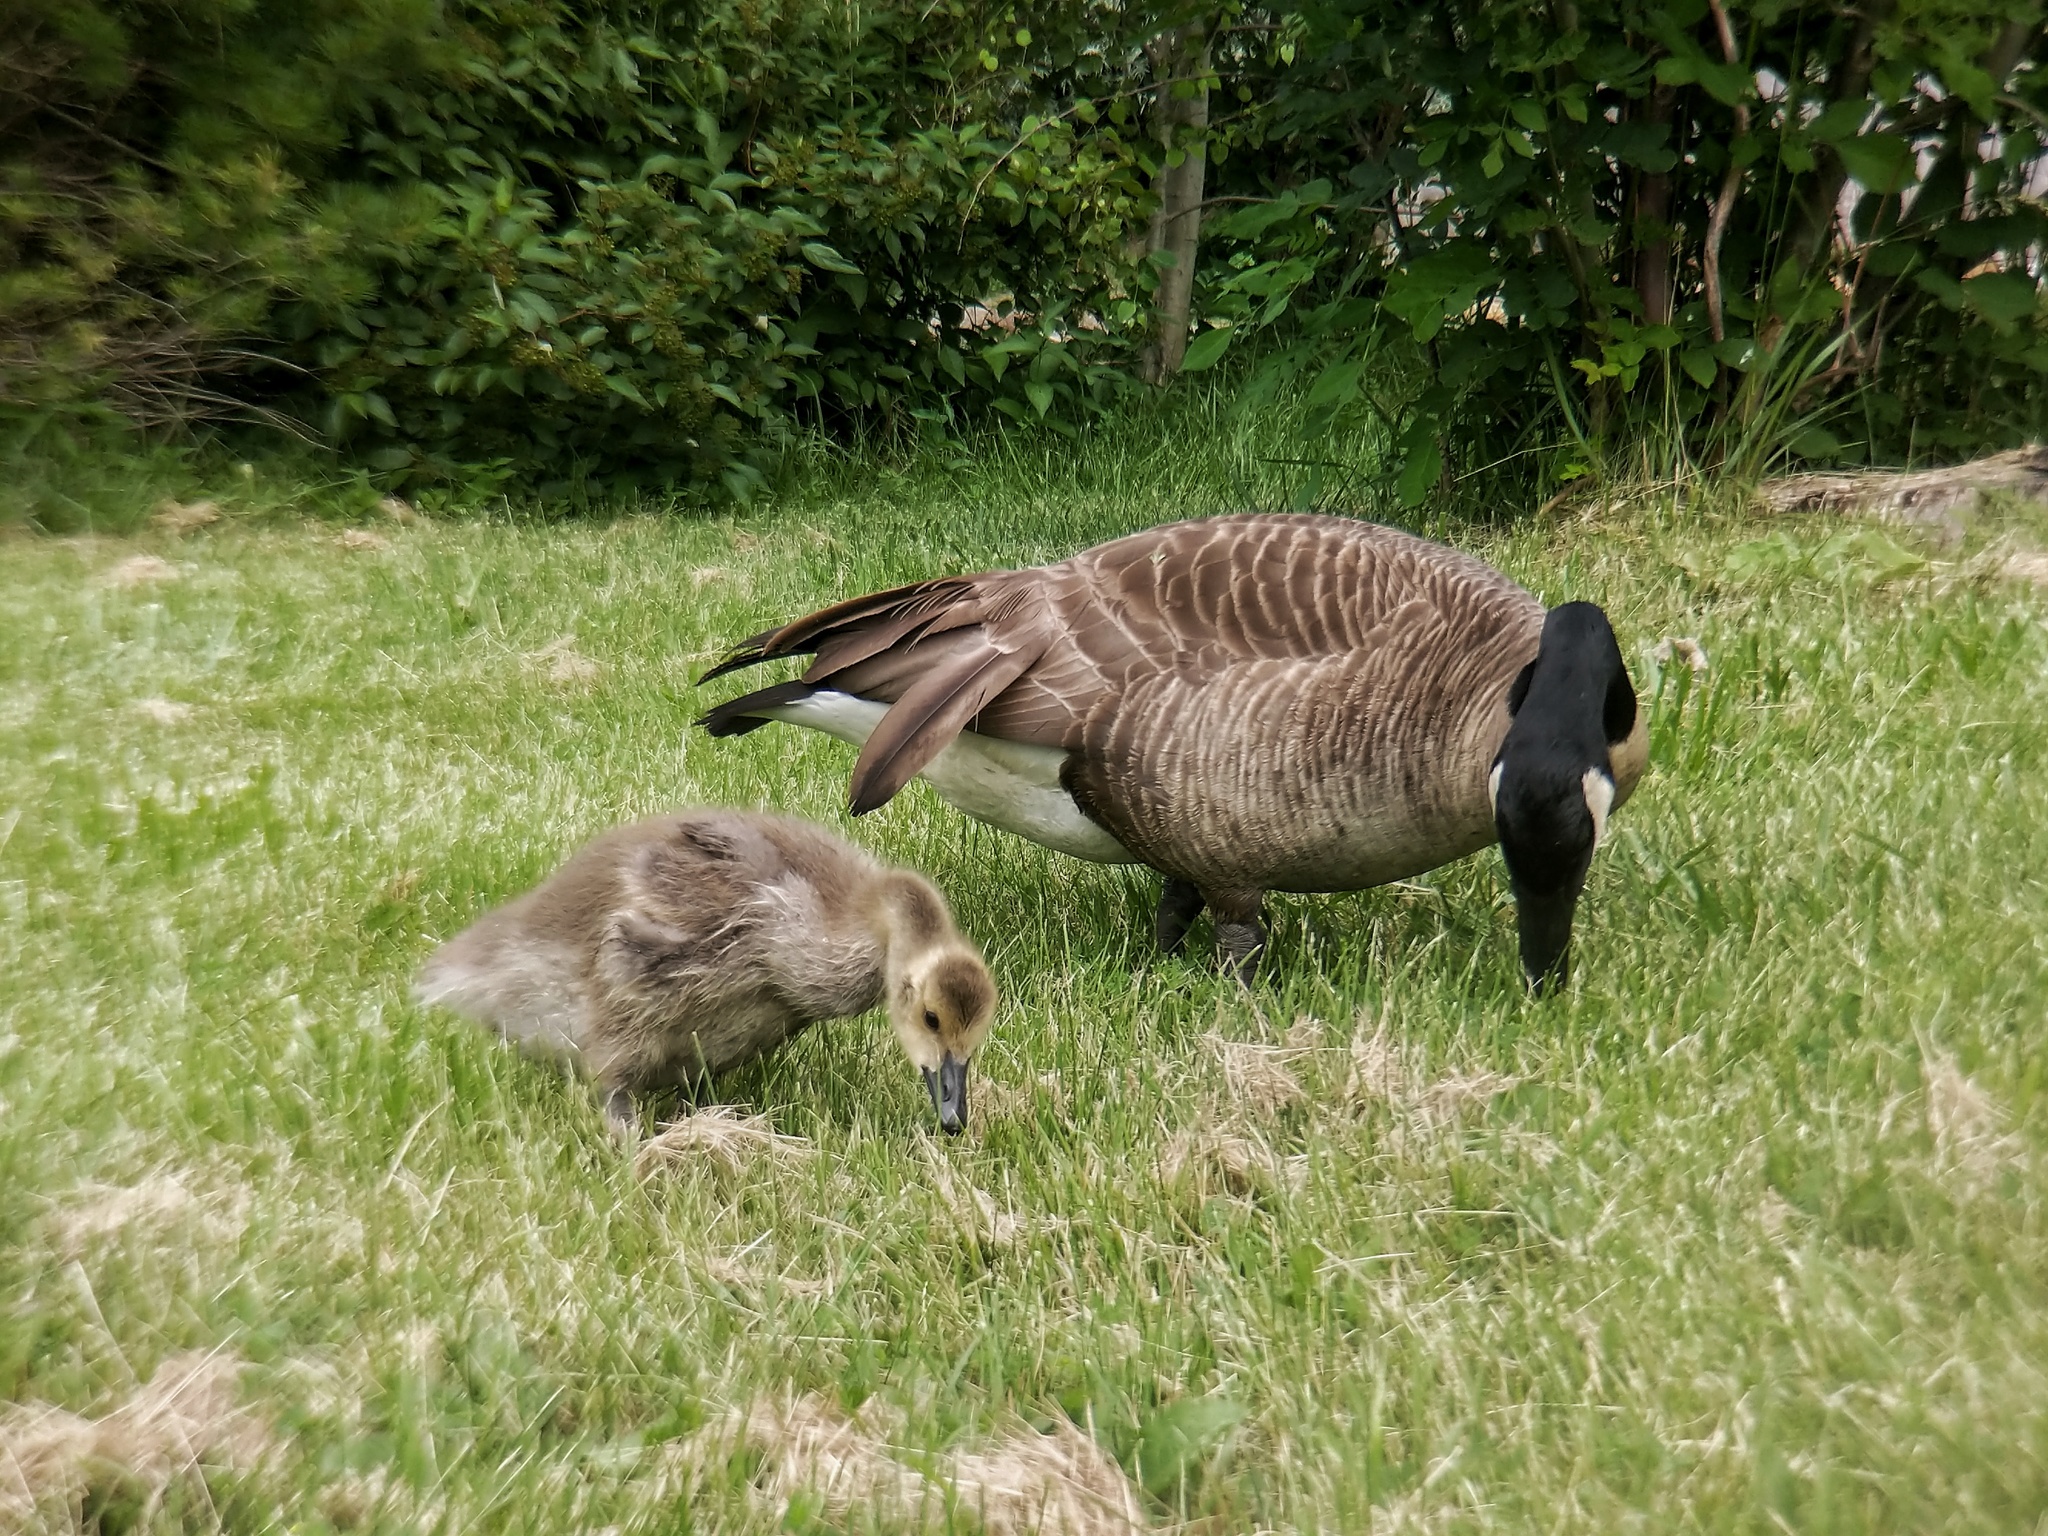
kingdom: Animalia
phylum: Chordata
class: Aves
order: Anseriformes
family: Anatidae
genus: Branta
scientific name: Branta canadensis
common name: Canada goose
